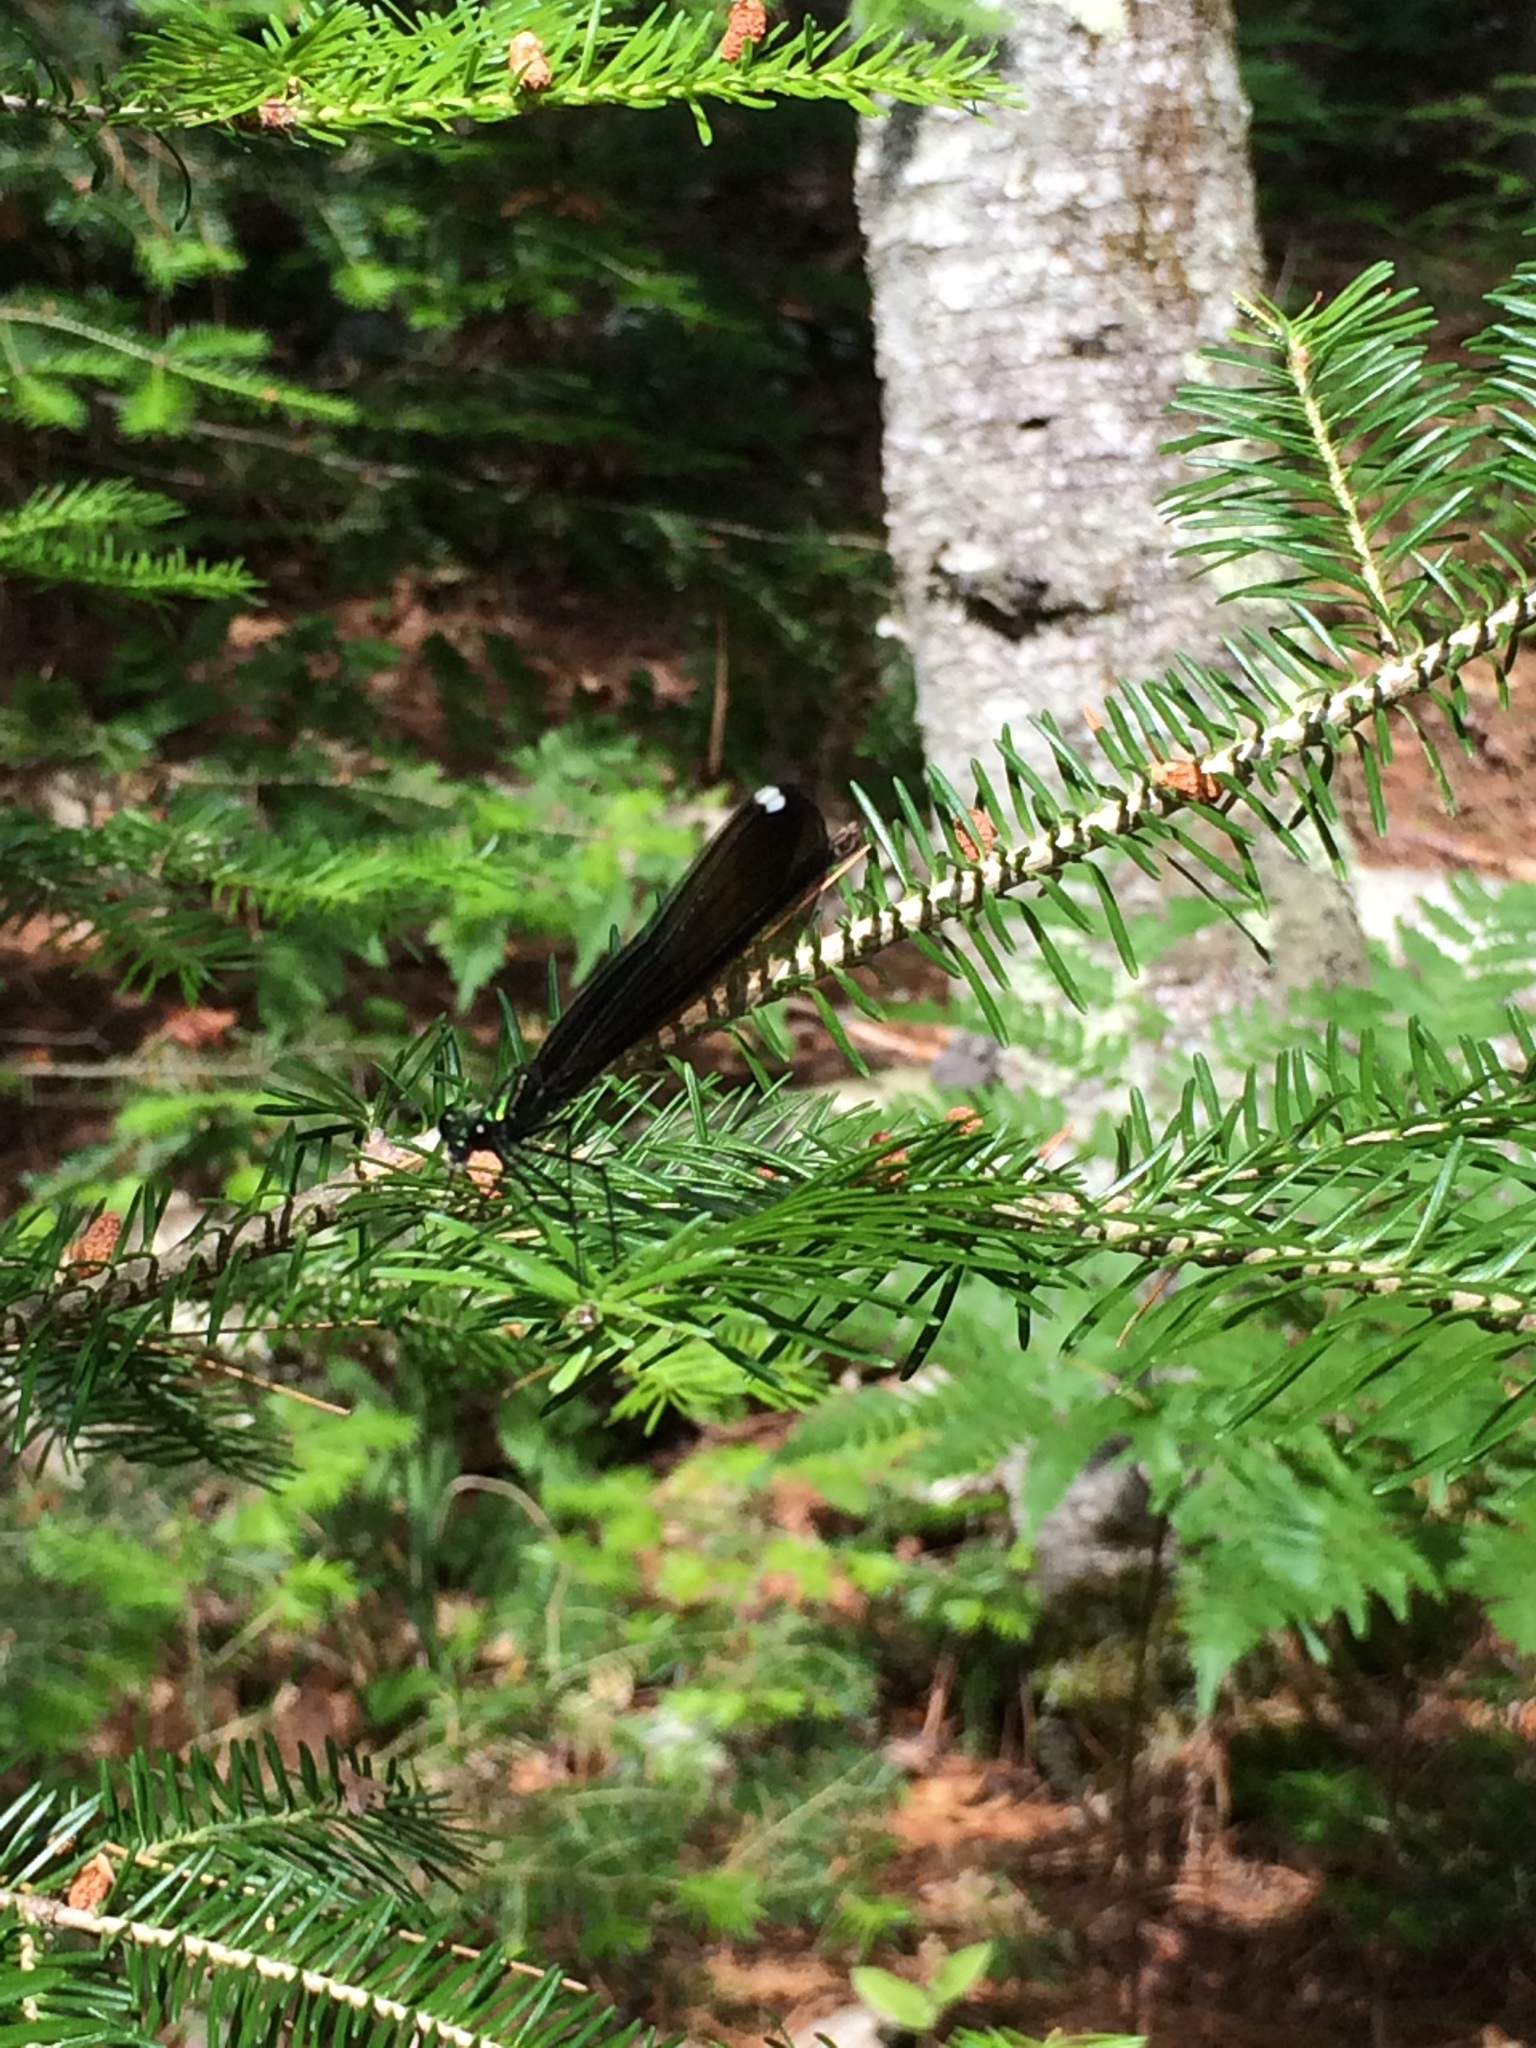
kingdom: Animalia
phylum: Arthropoda
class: Insecta
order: Odonata
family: Calopterygidae
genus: Calopteryx
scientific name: Calopteryx maculata
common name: Ebony jewelwing
